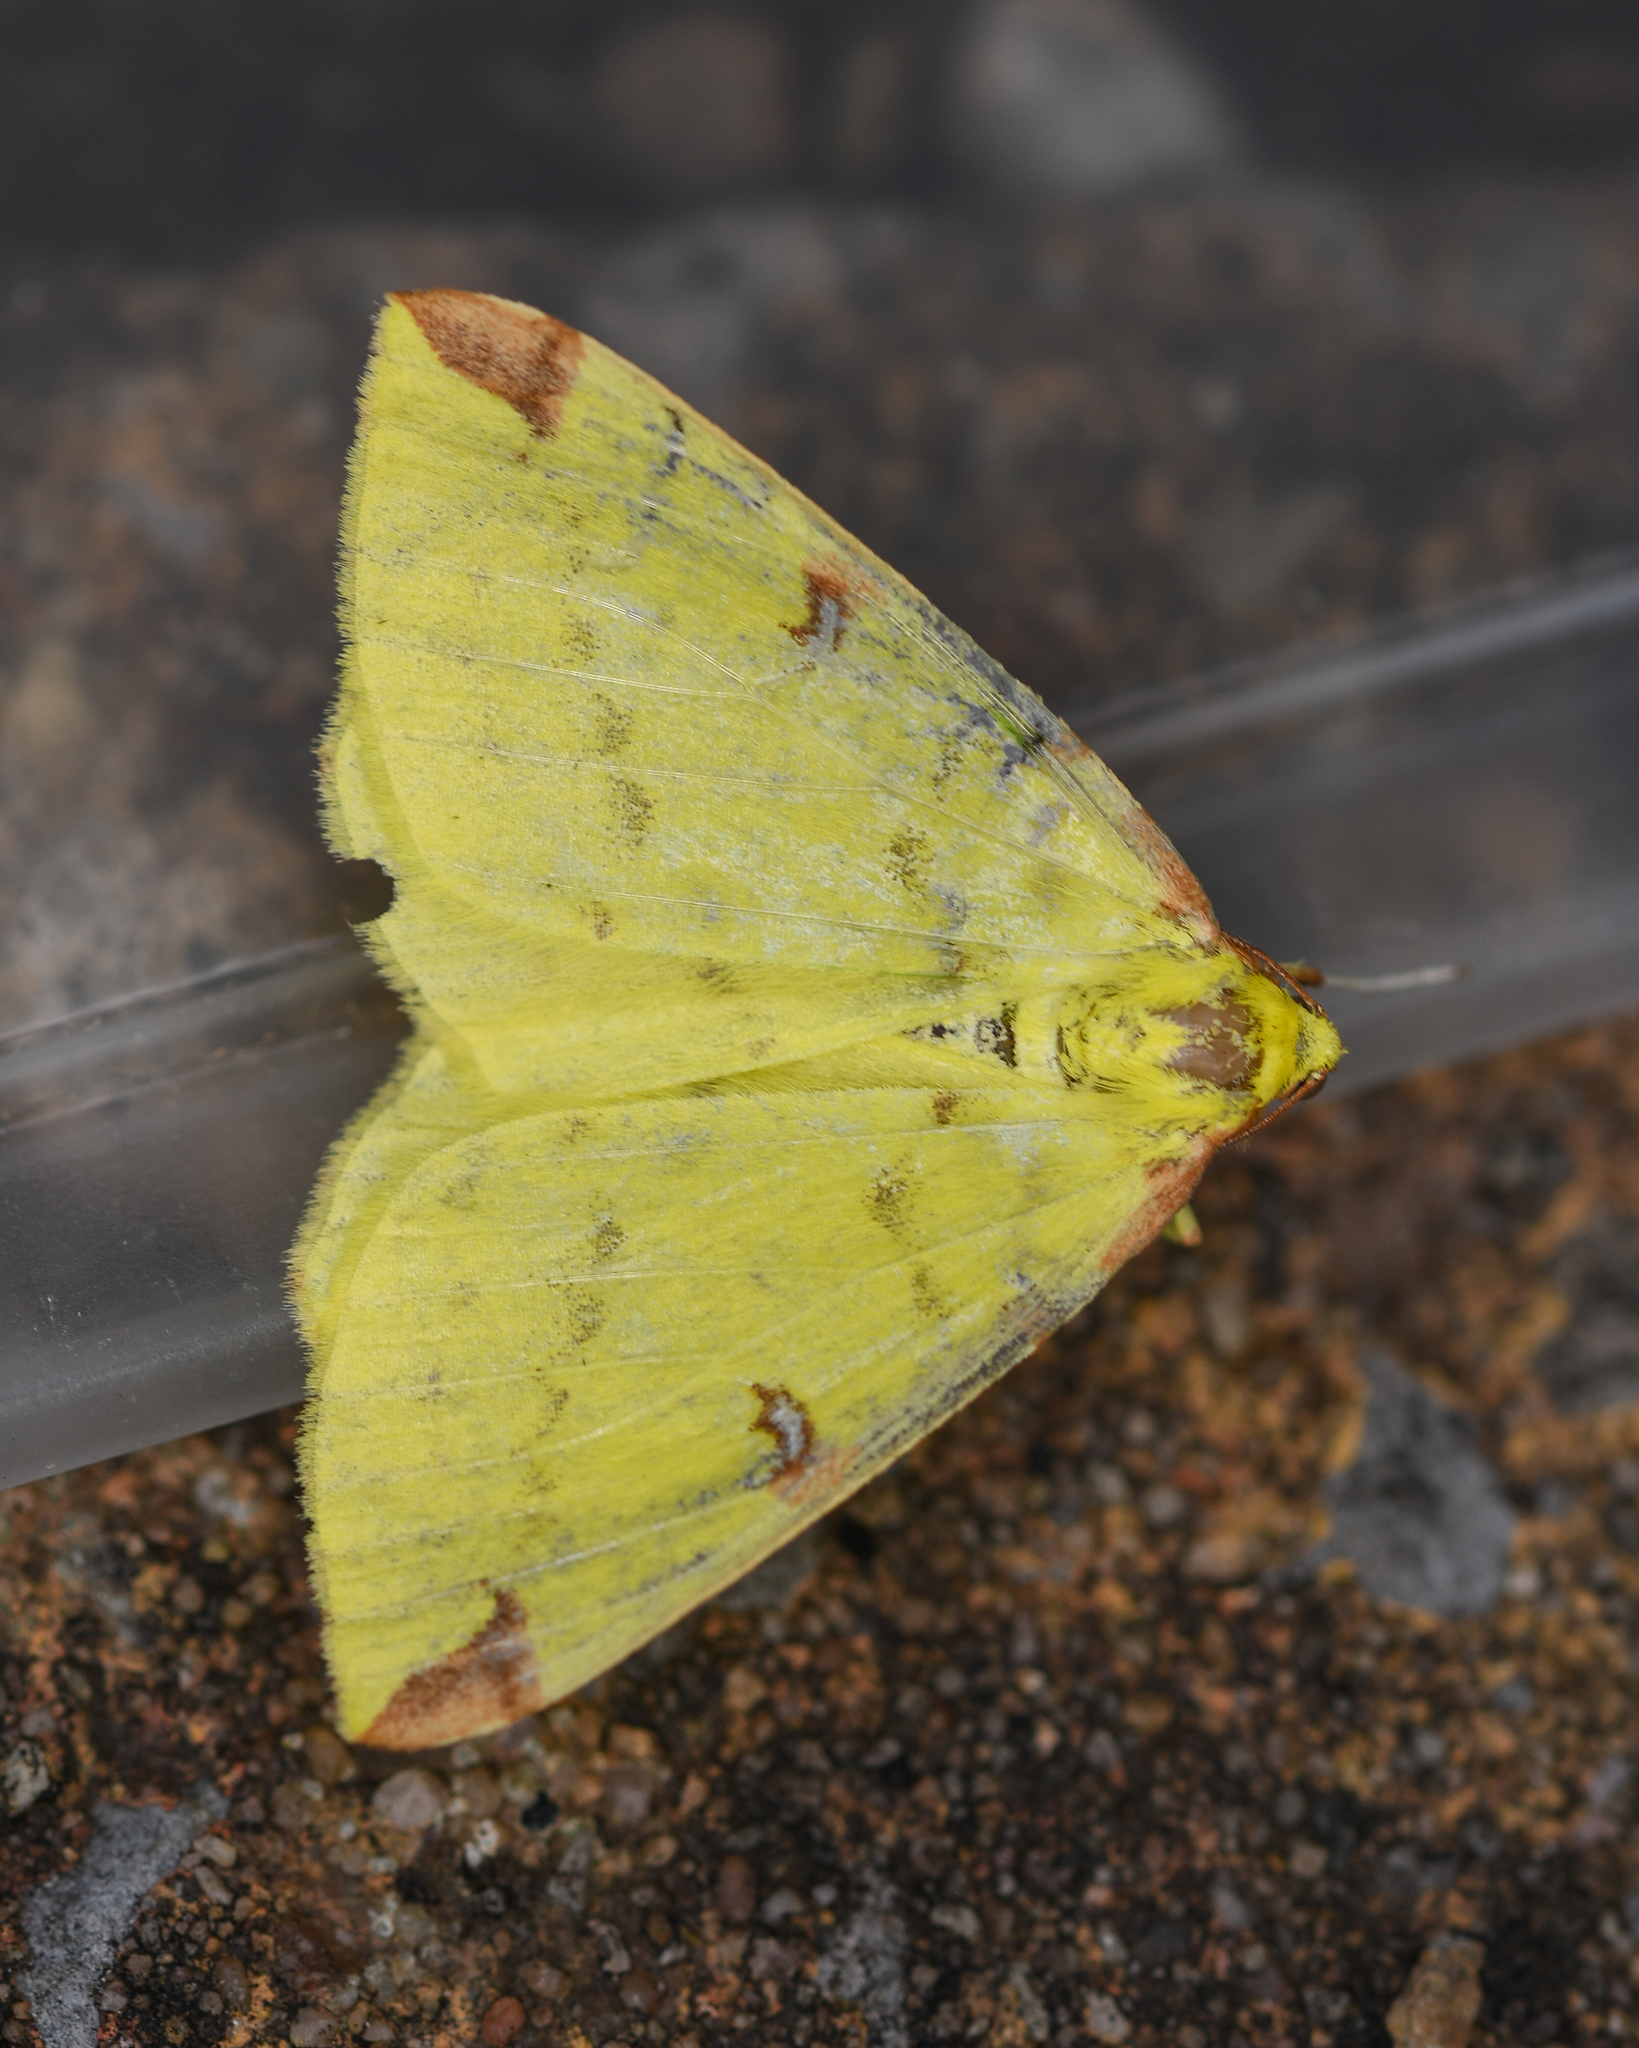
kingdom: Animalia
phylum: Arthropoda
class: Insecta
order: Lepidoptera
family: Geometridae
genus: Opisthograptis
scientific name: Opisthograptis luteolata
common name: Brimstone moth
